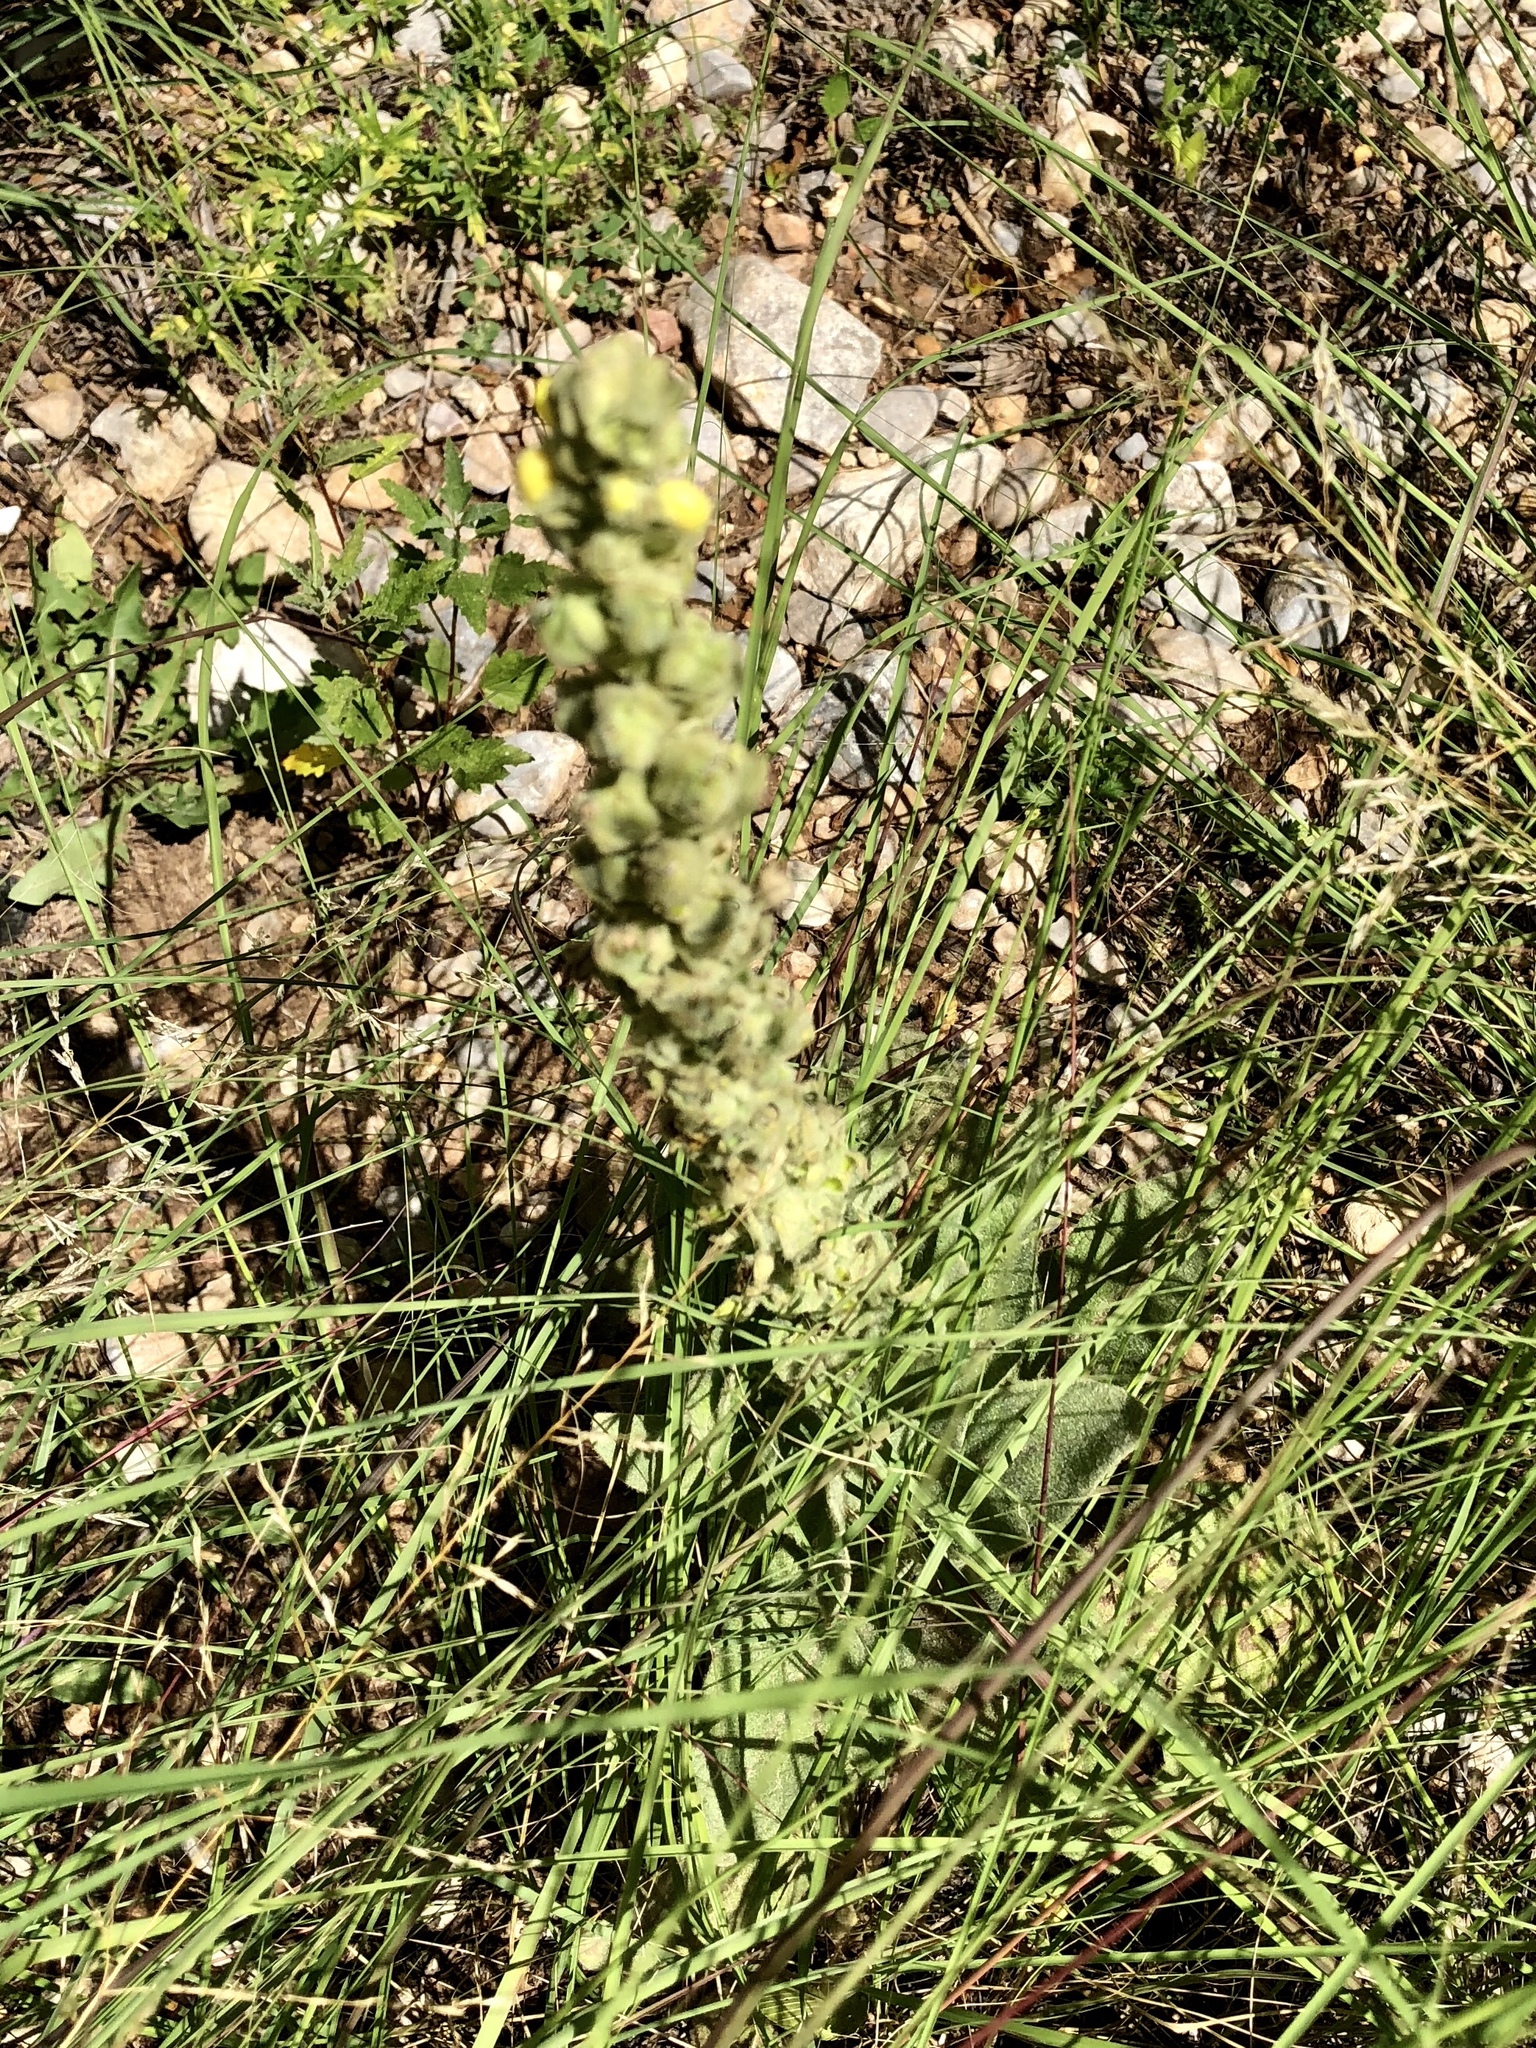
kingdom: Plantae
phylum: Tracheophyta
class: Magnoliopsida
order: Lamiales
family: Scrophulariaceae
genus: Verbascum
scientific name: Verbascum thapsus
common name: Common mullein
